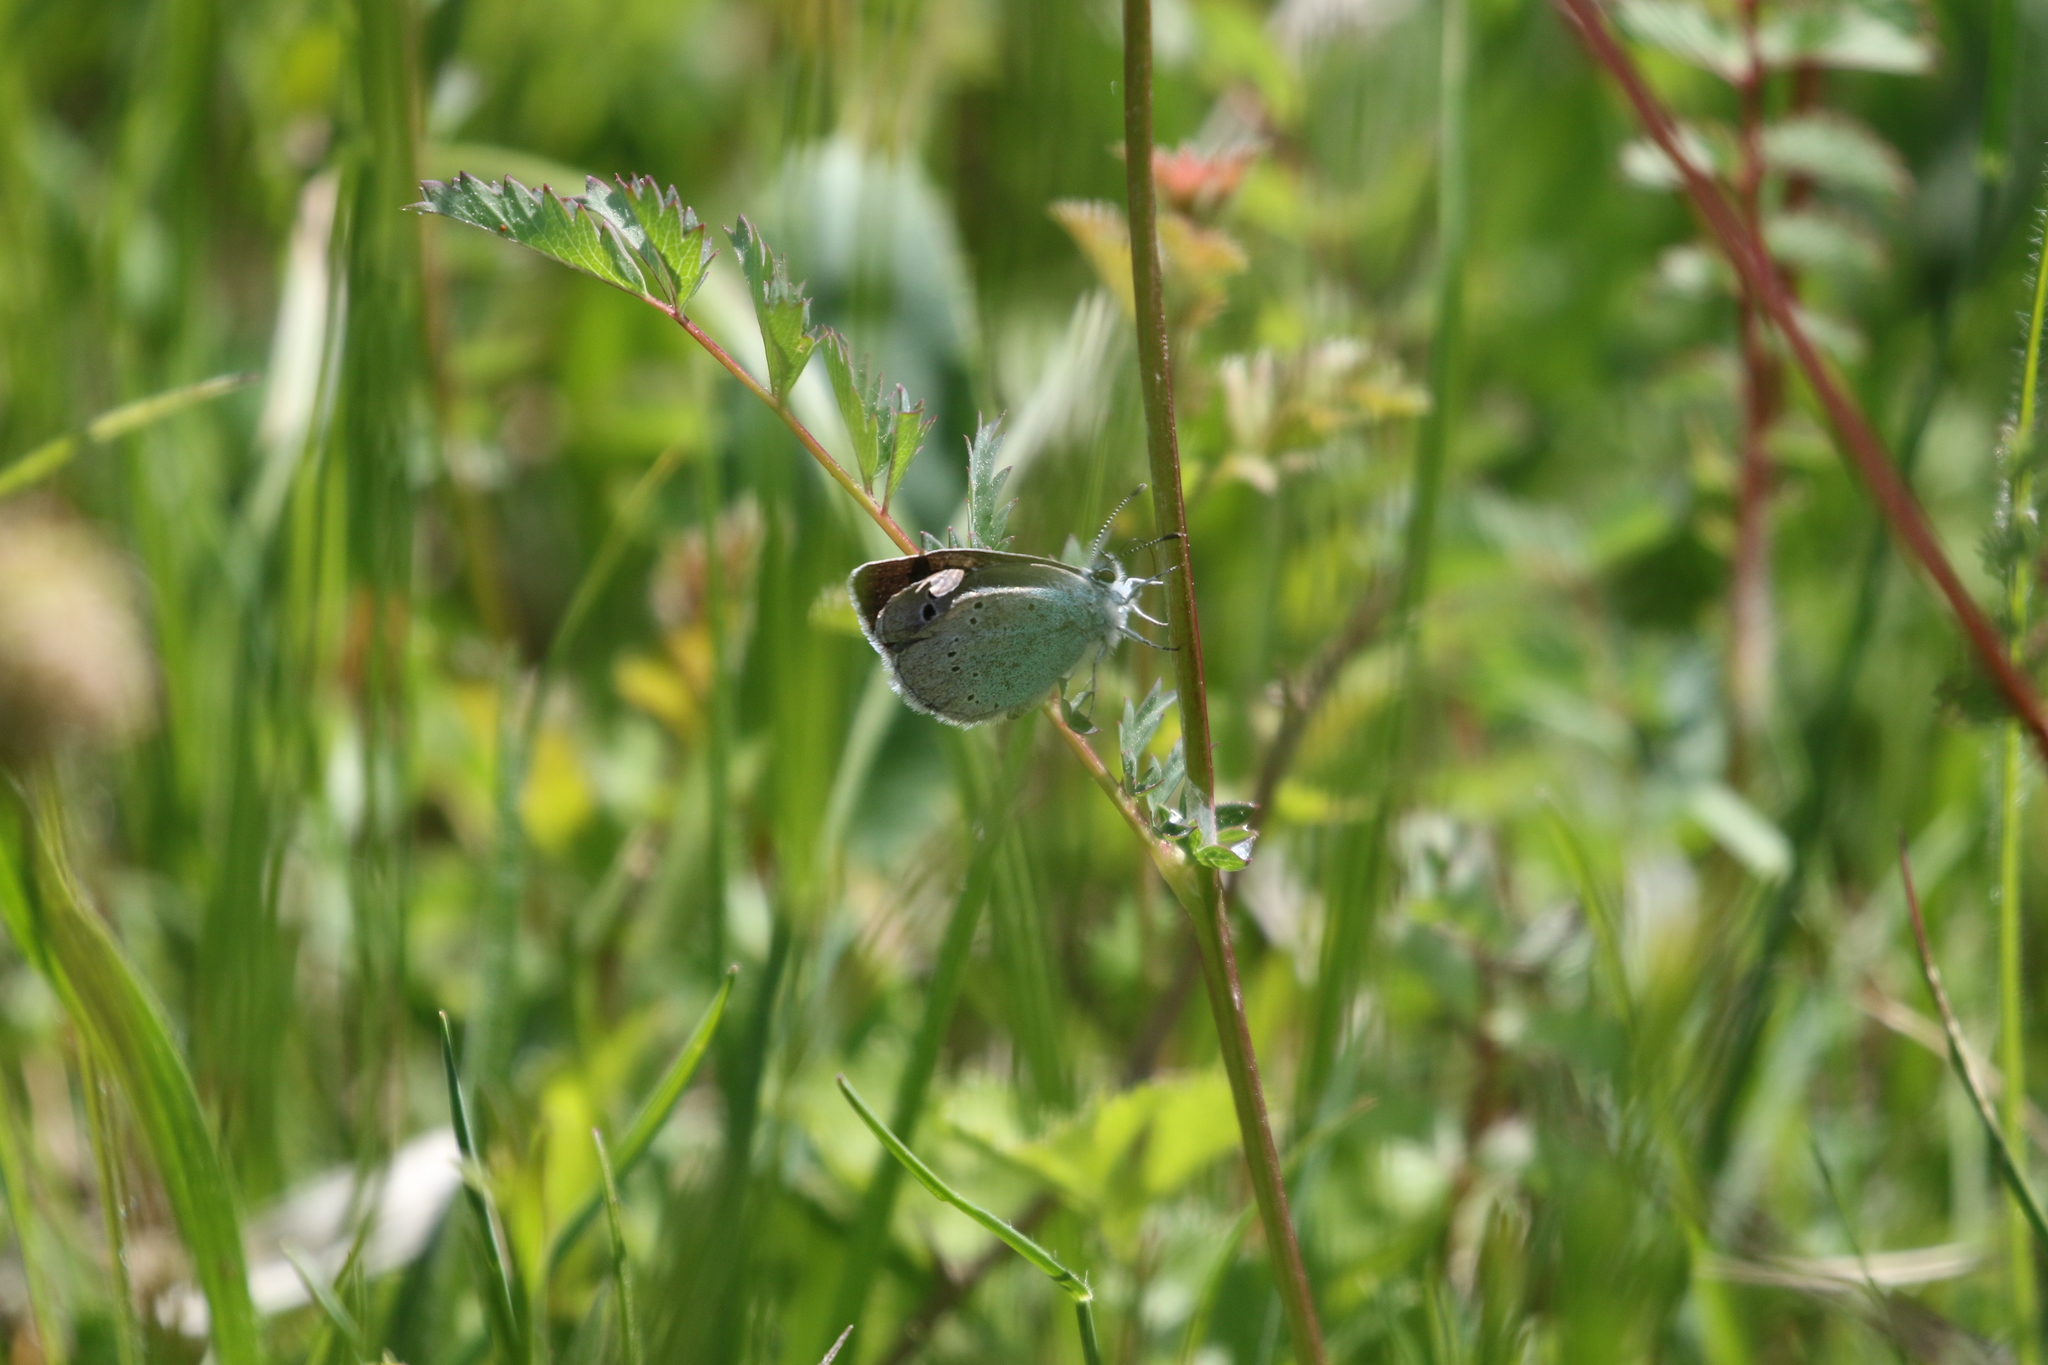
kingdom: Animalia
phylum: Arthropoda
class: Insecta
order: Lepidoptera
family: Lycaenidae
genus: Glaucopsyche
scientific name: Glaucopsyche alexis
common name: Green-underside blue
